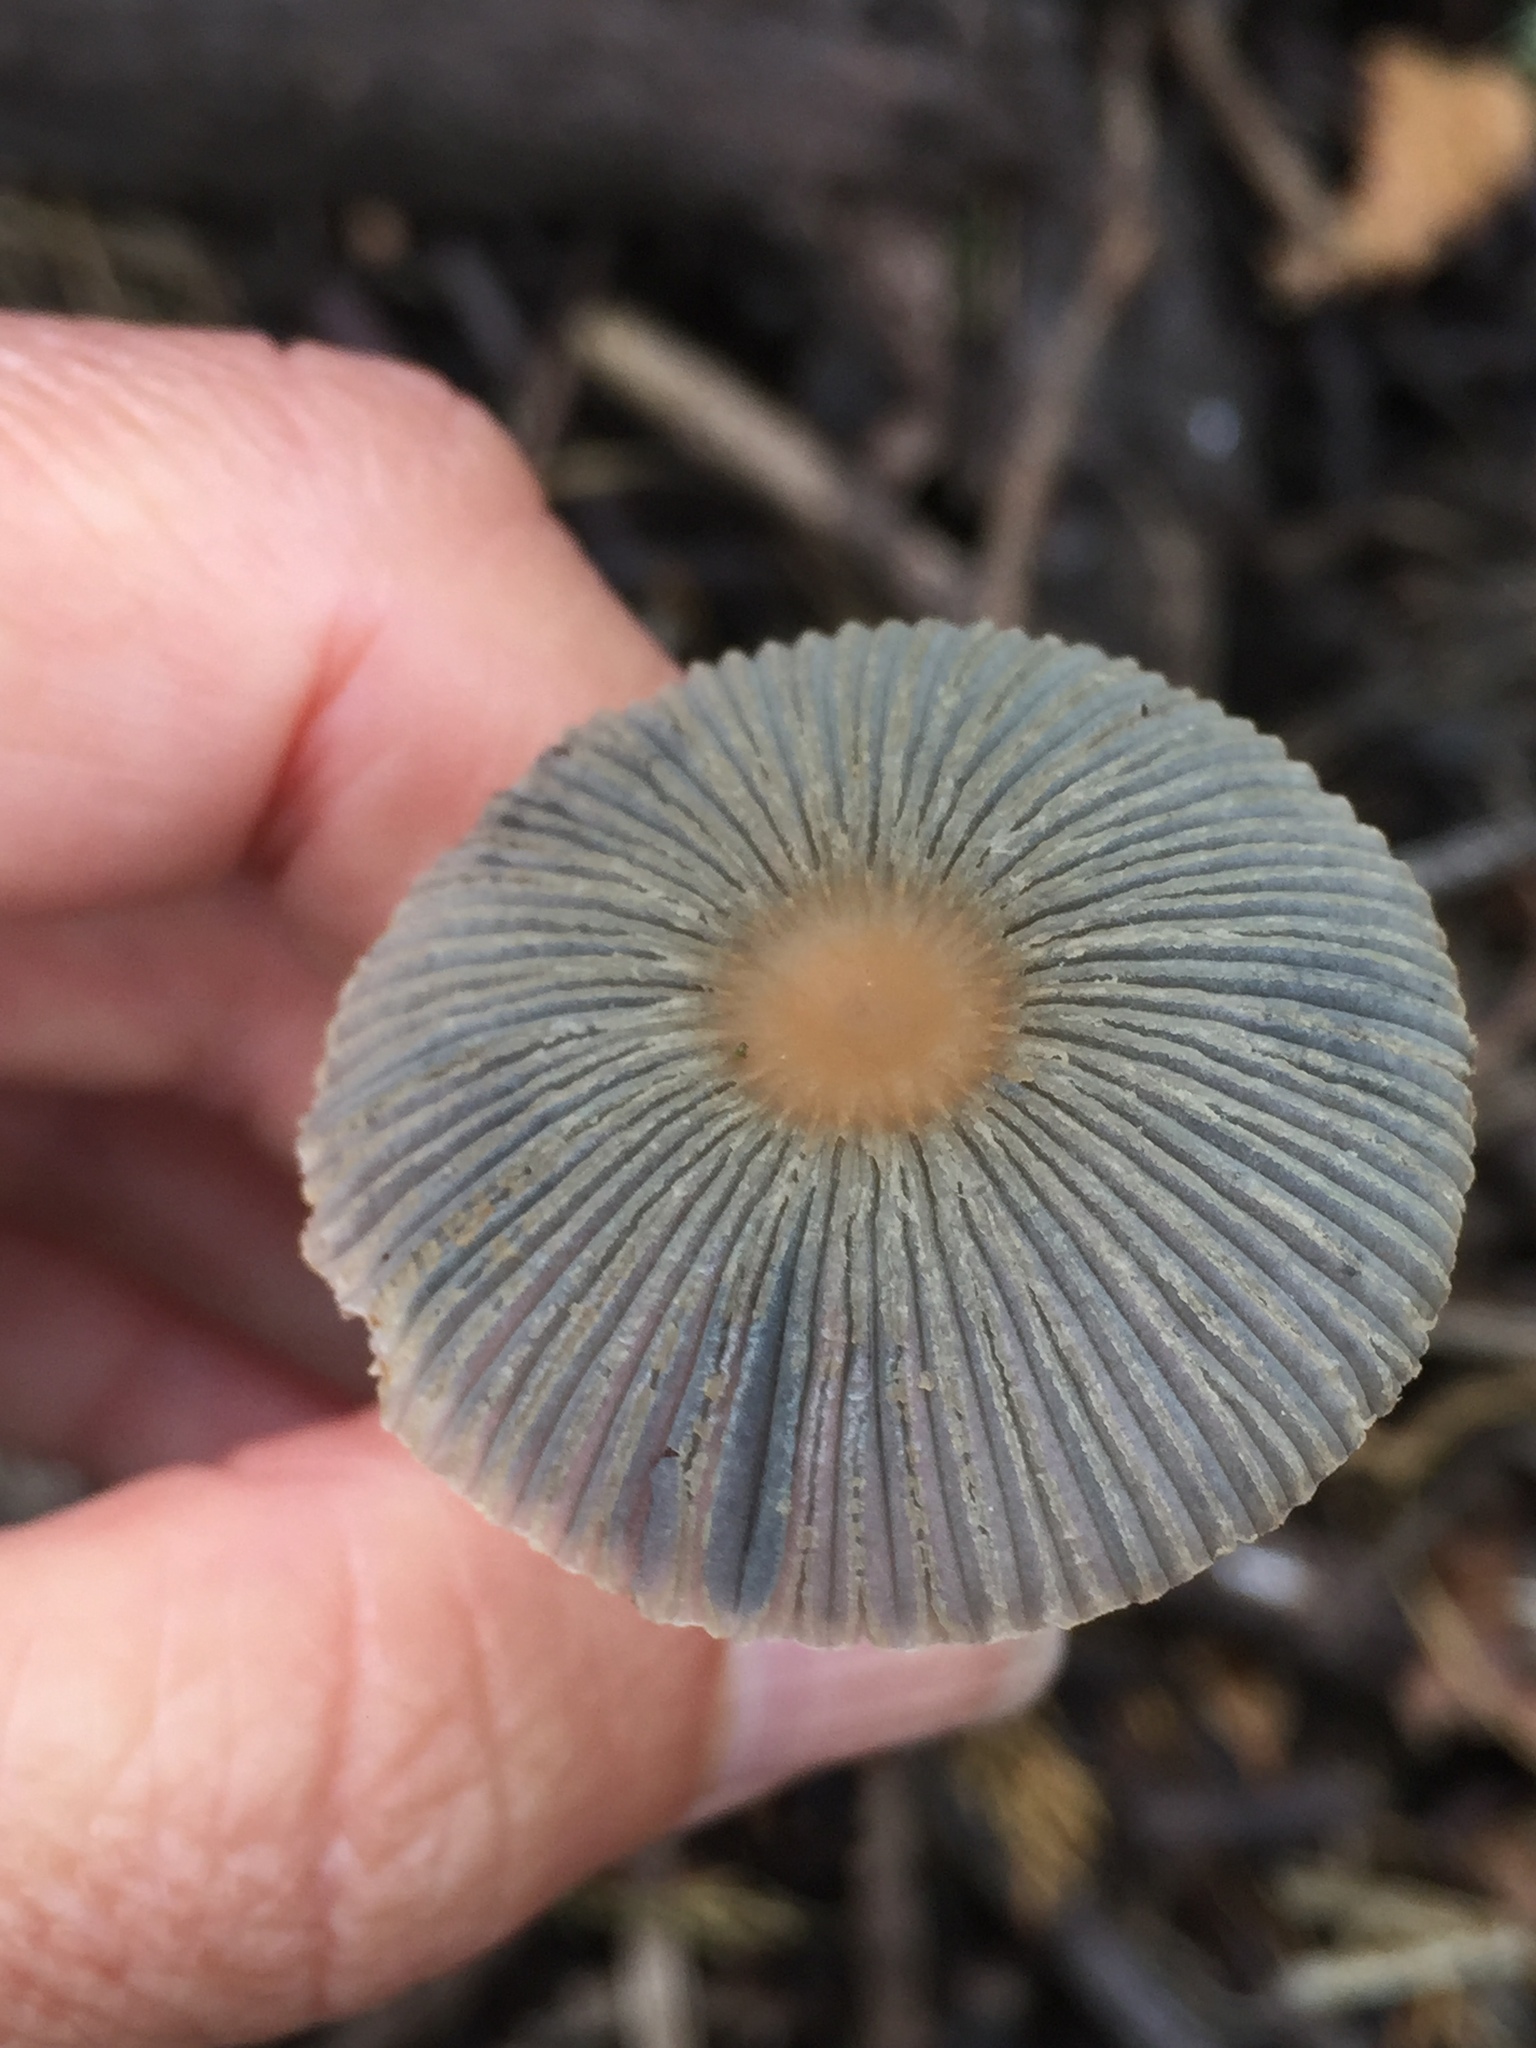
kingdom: Fungi
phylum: Basidiomycota
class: Agaricomycetes
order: Agaricales
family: Psathyrellaceae
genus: Parasola
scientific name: Parasola auricoma
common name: Goldenhaired inkcap
